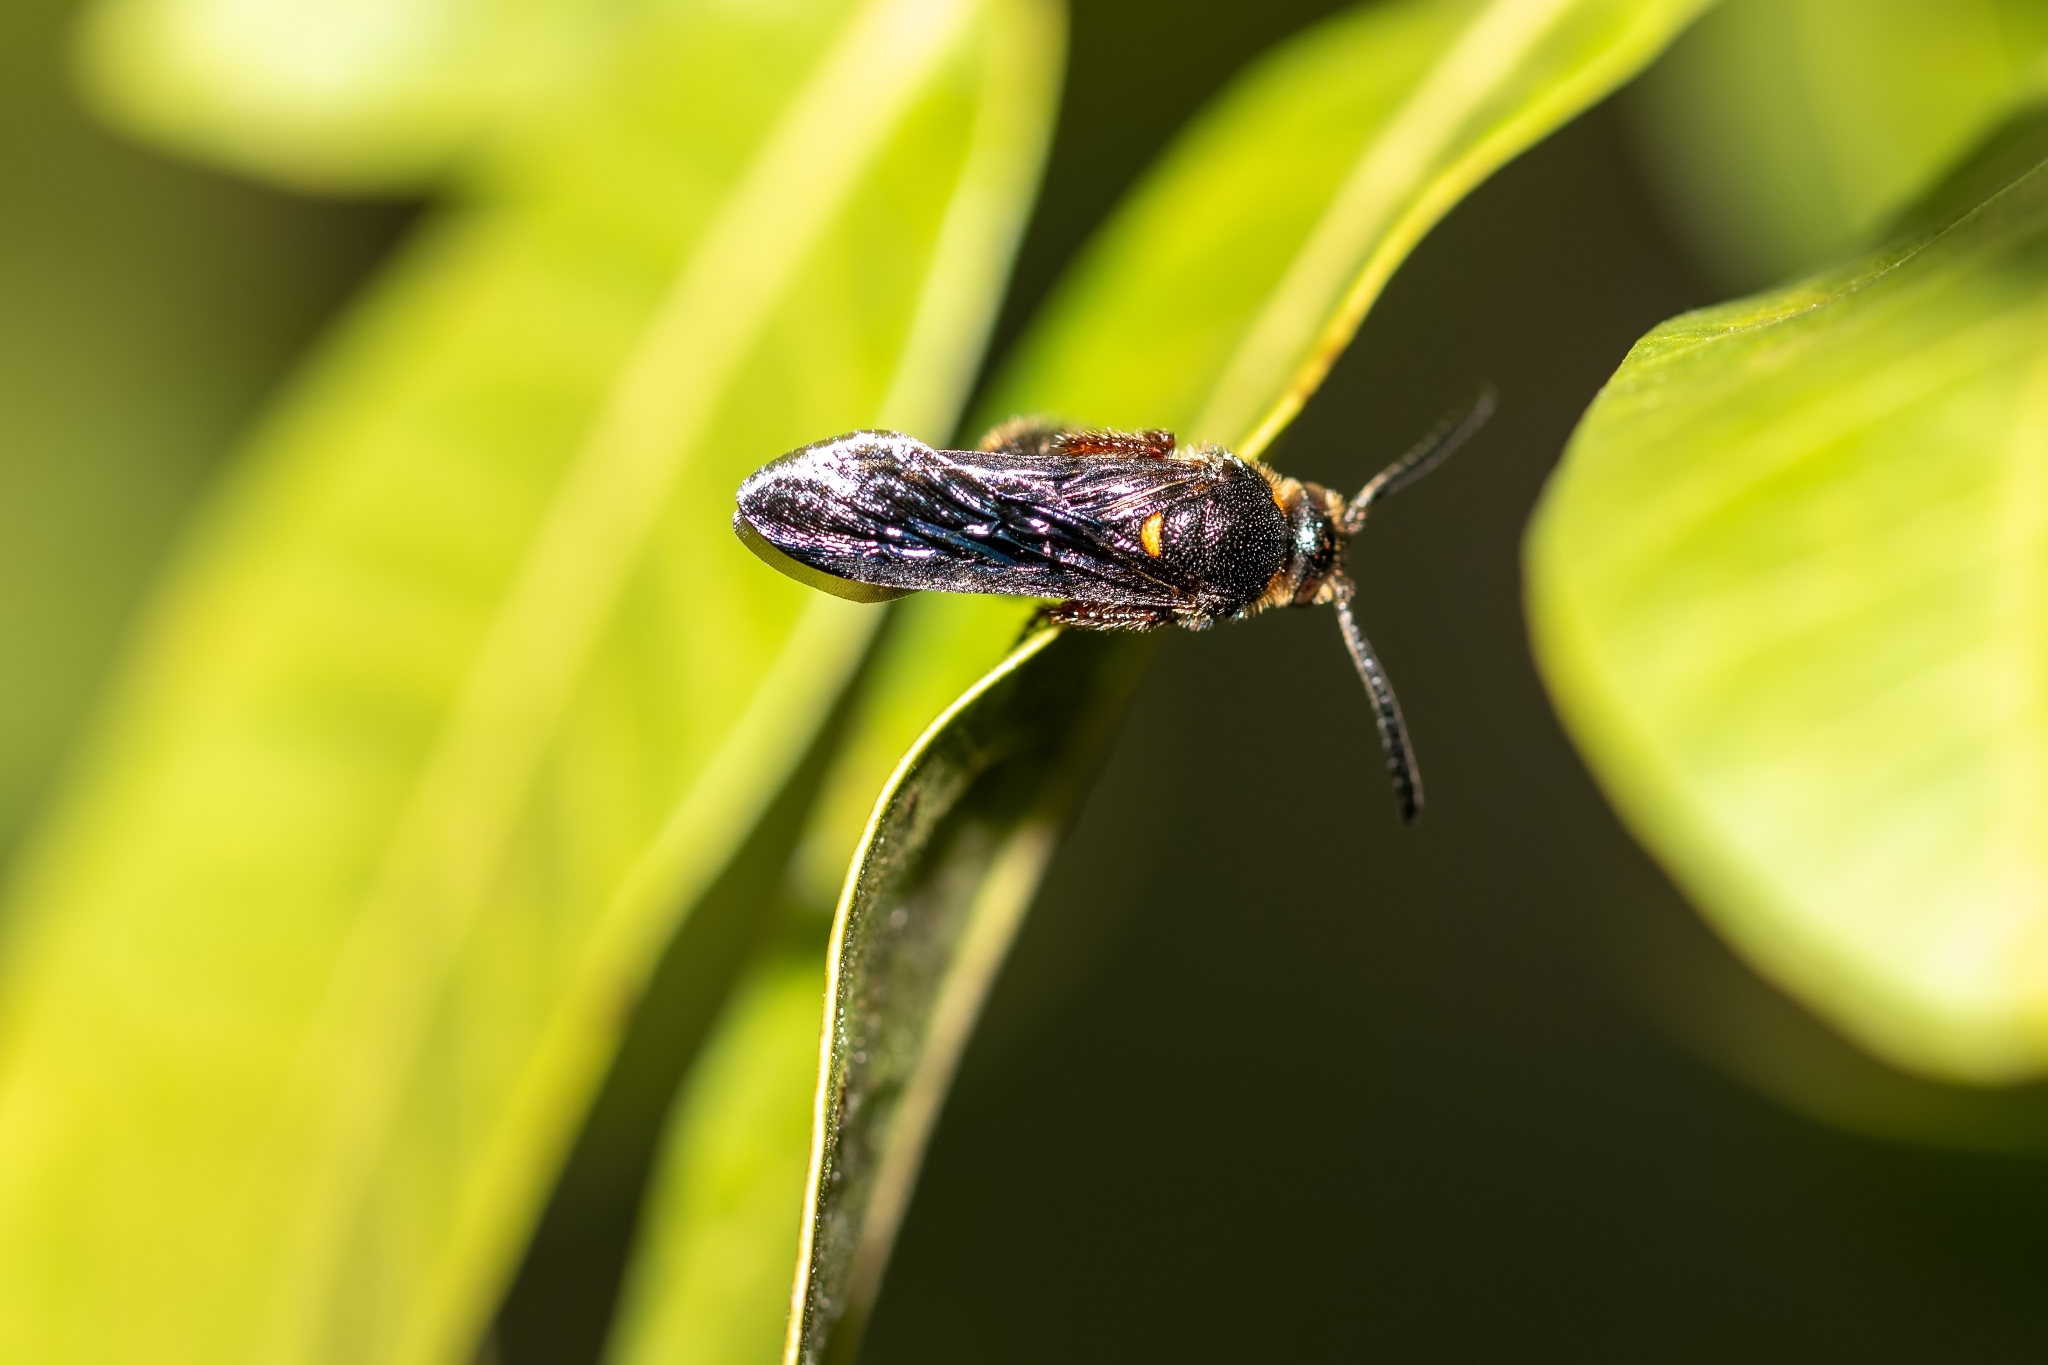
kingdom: Animalia
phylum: Arthropoda
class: Insecta
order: Hymenoptera
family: Scoliidae
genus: Scolia
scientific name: Scolia nobilitata
